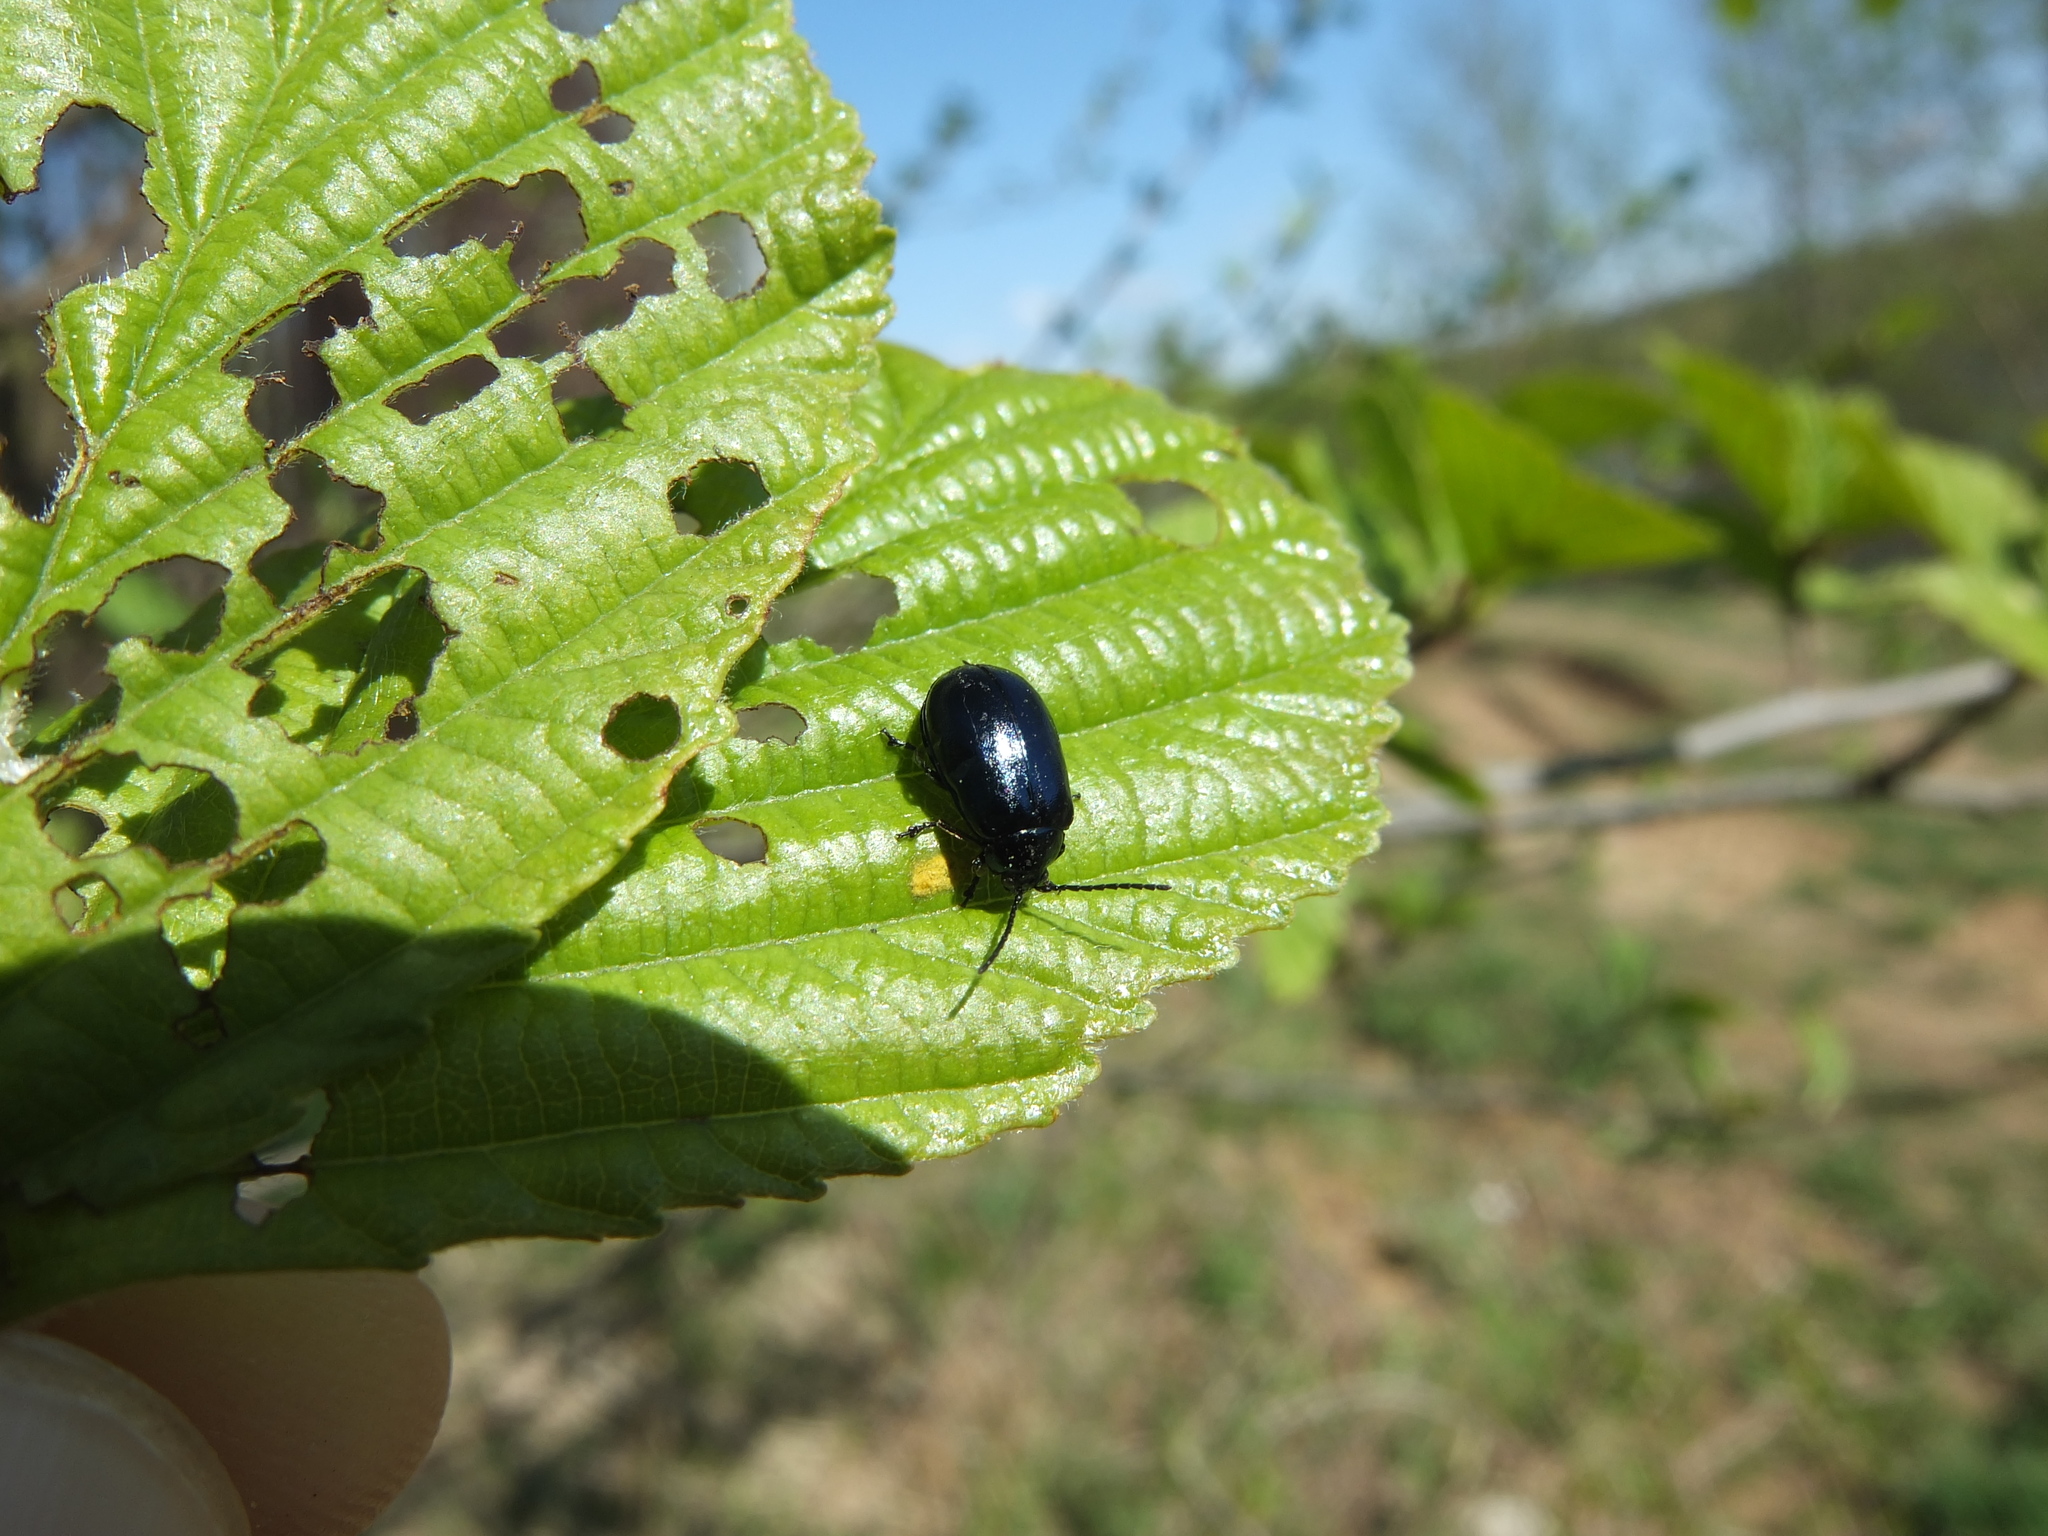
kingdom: Animalia
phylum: Arthropoda
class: Insecta
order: Coleoptera
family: Chrysomelidae
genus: Agelastica
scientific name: Agelastica alni
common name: Alder leaf beetle
